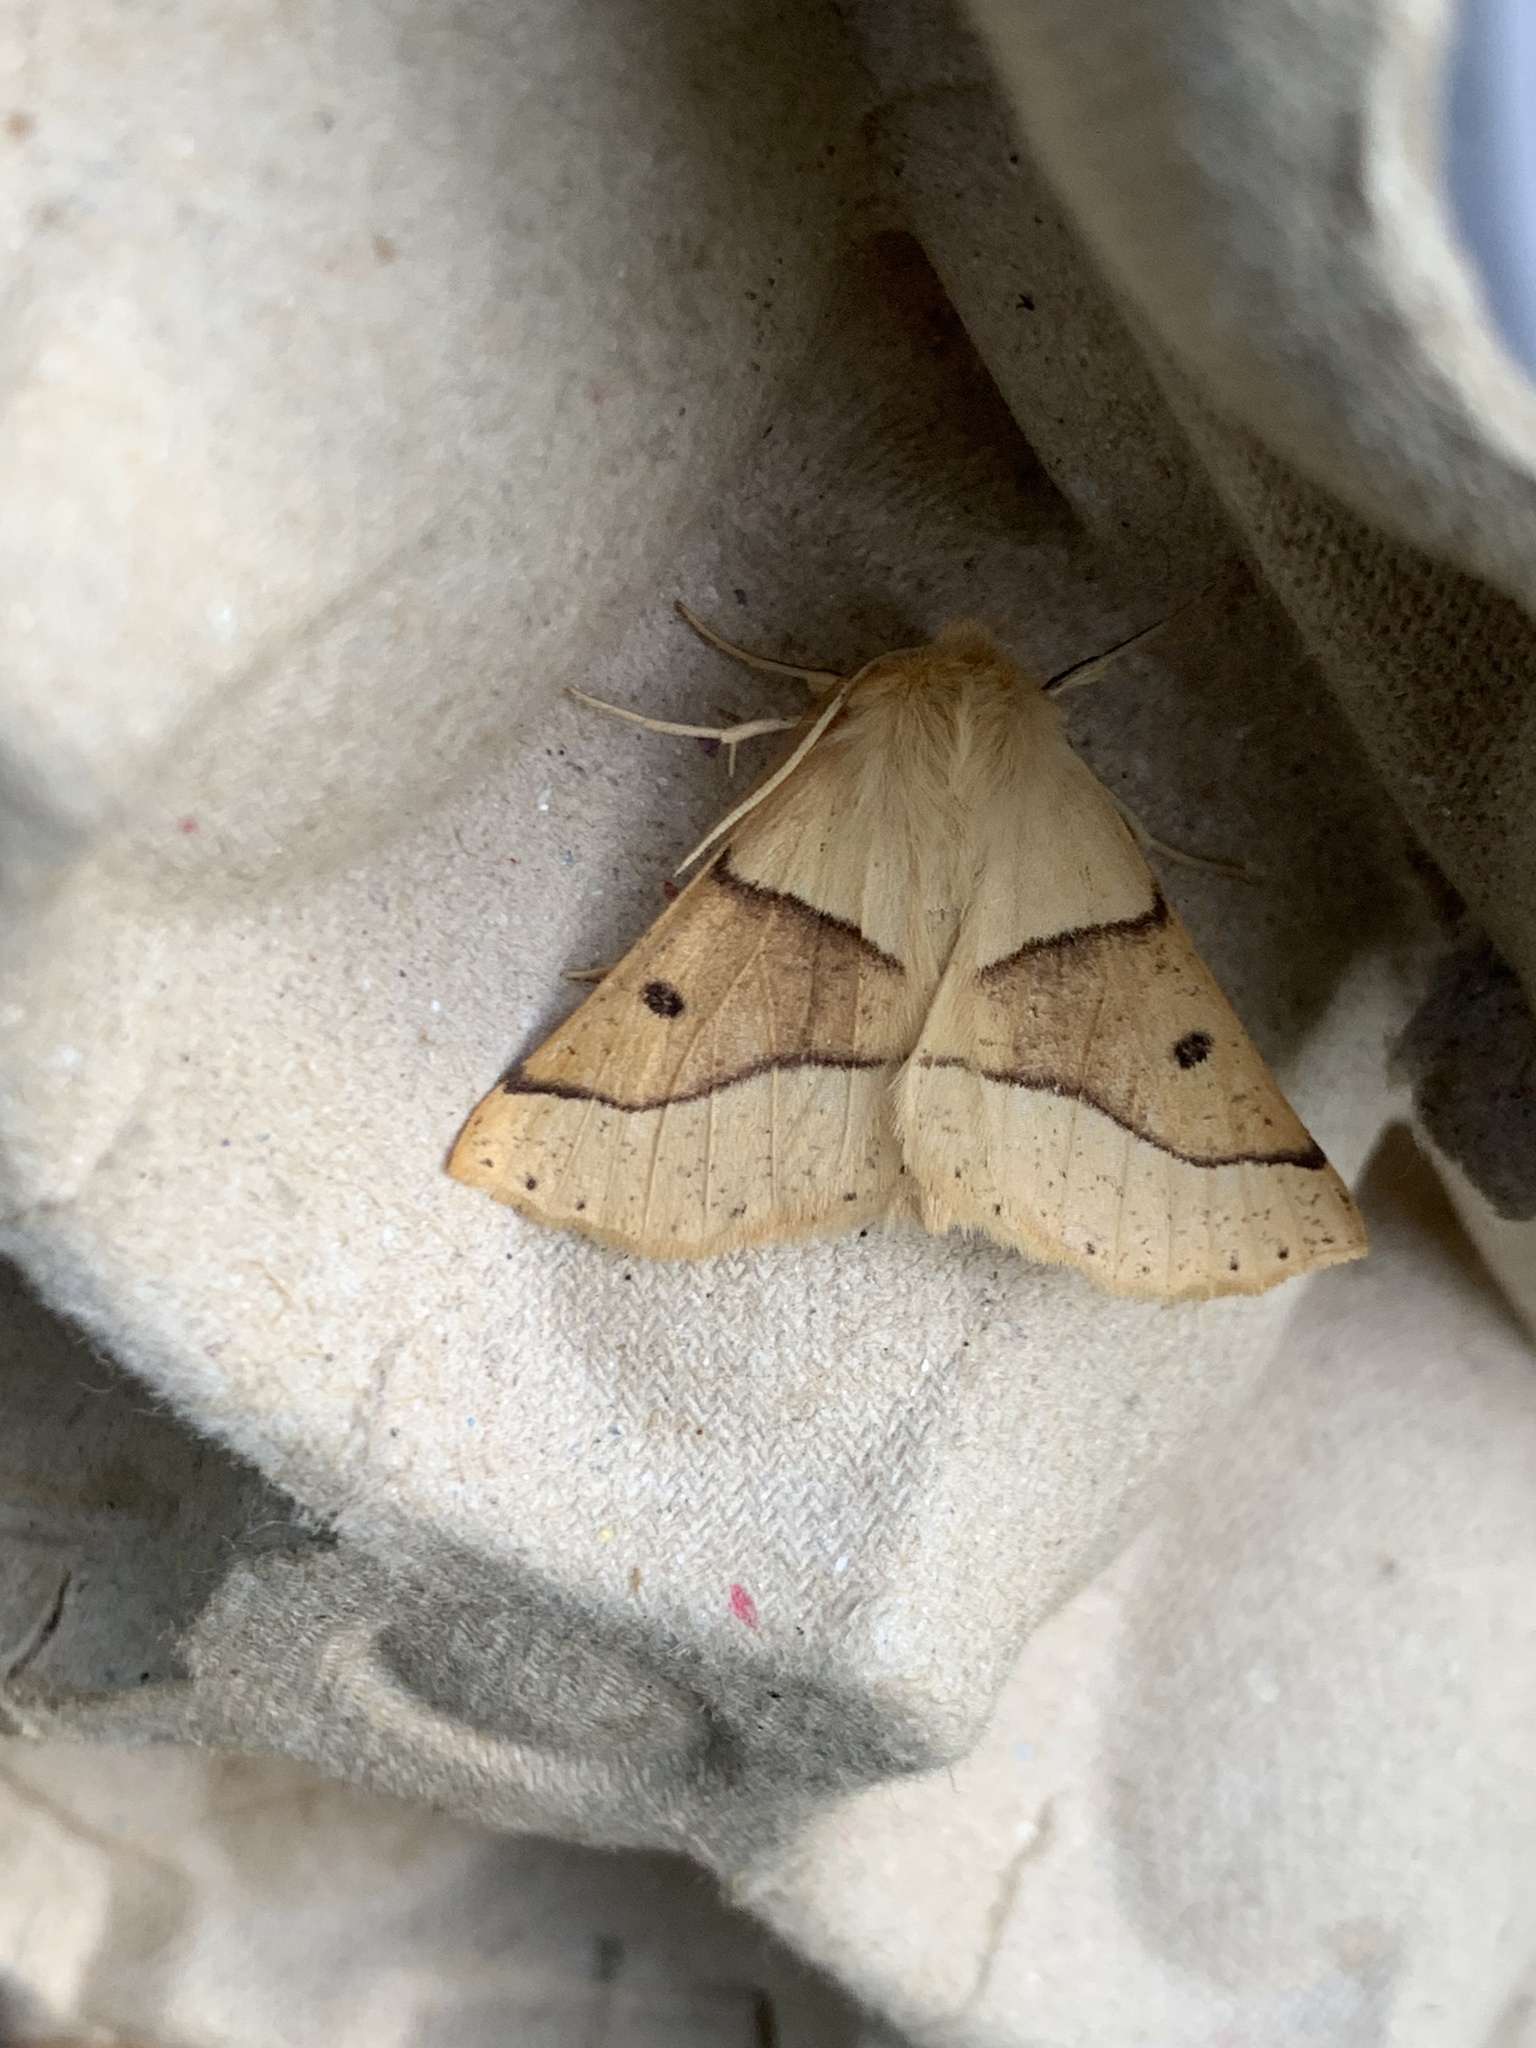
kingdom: Animalia
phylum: Arthropoda
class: Insecta
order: Lepidoptera
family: Geometridae
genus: Crocallis
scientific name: Crocallis elinguaria
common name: Scalloped oak
